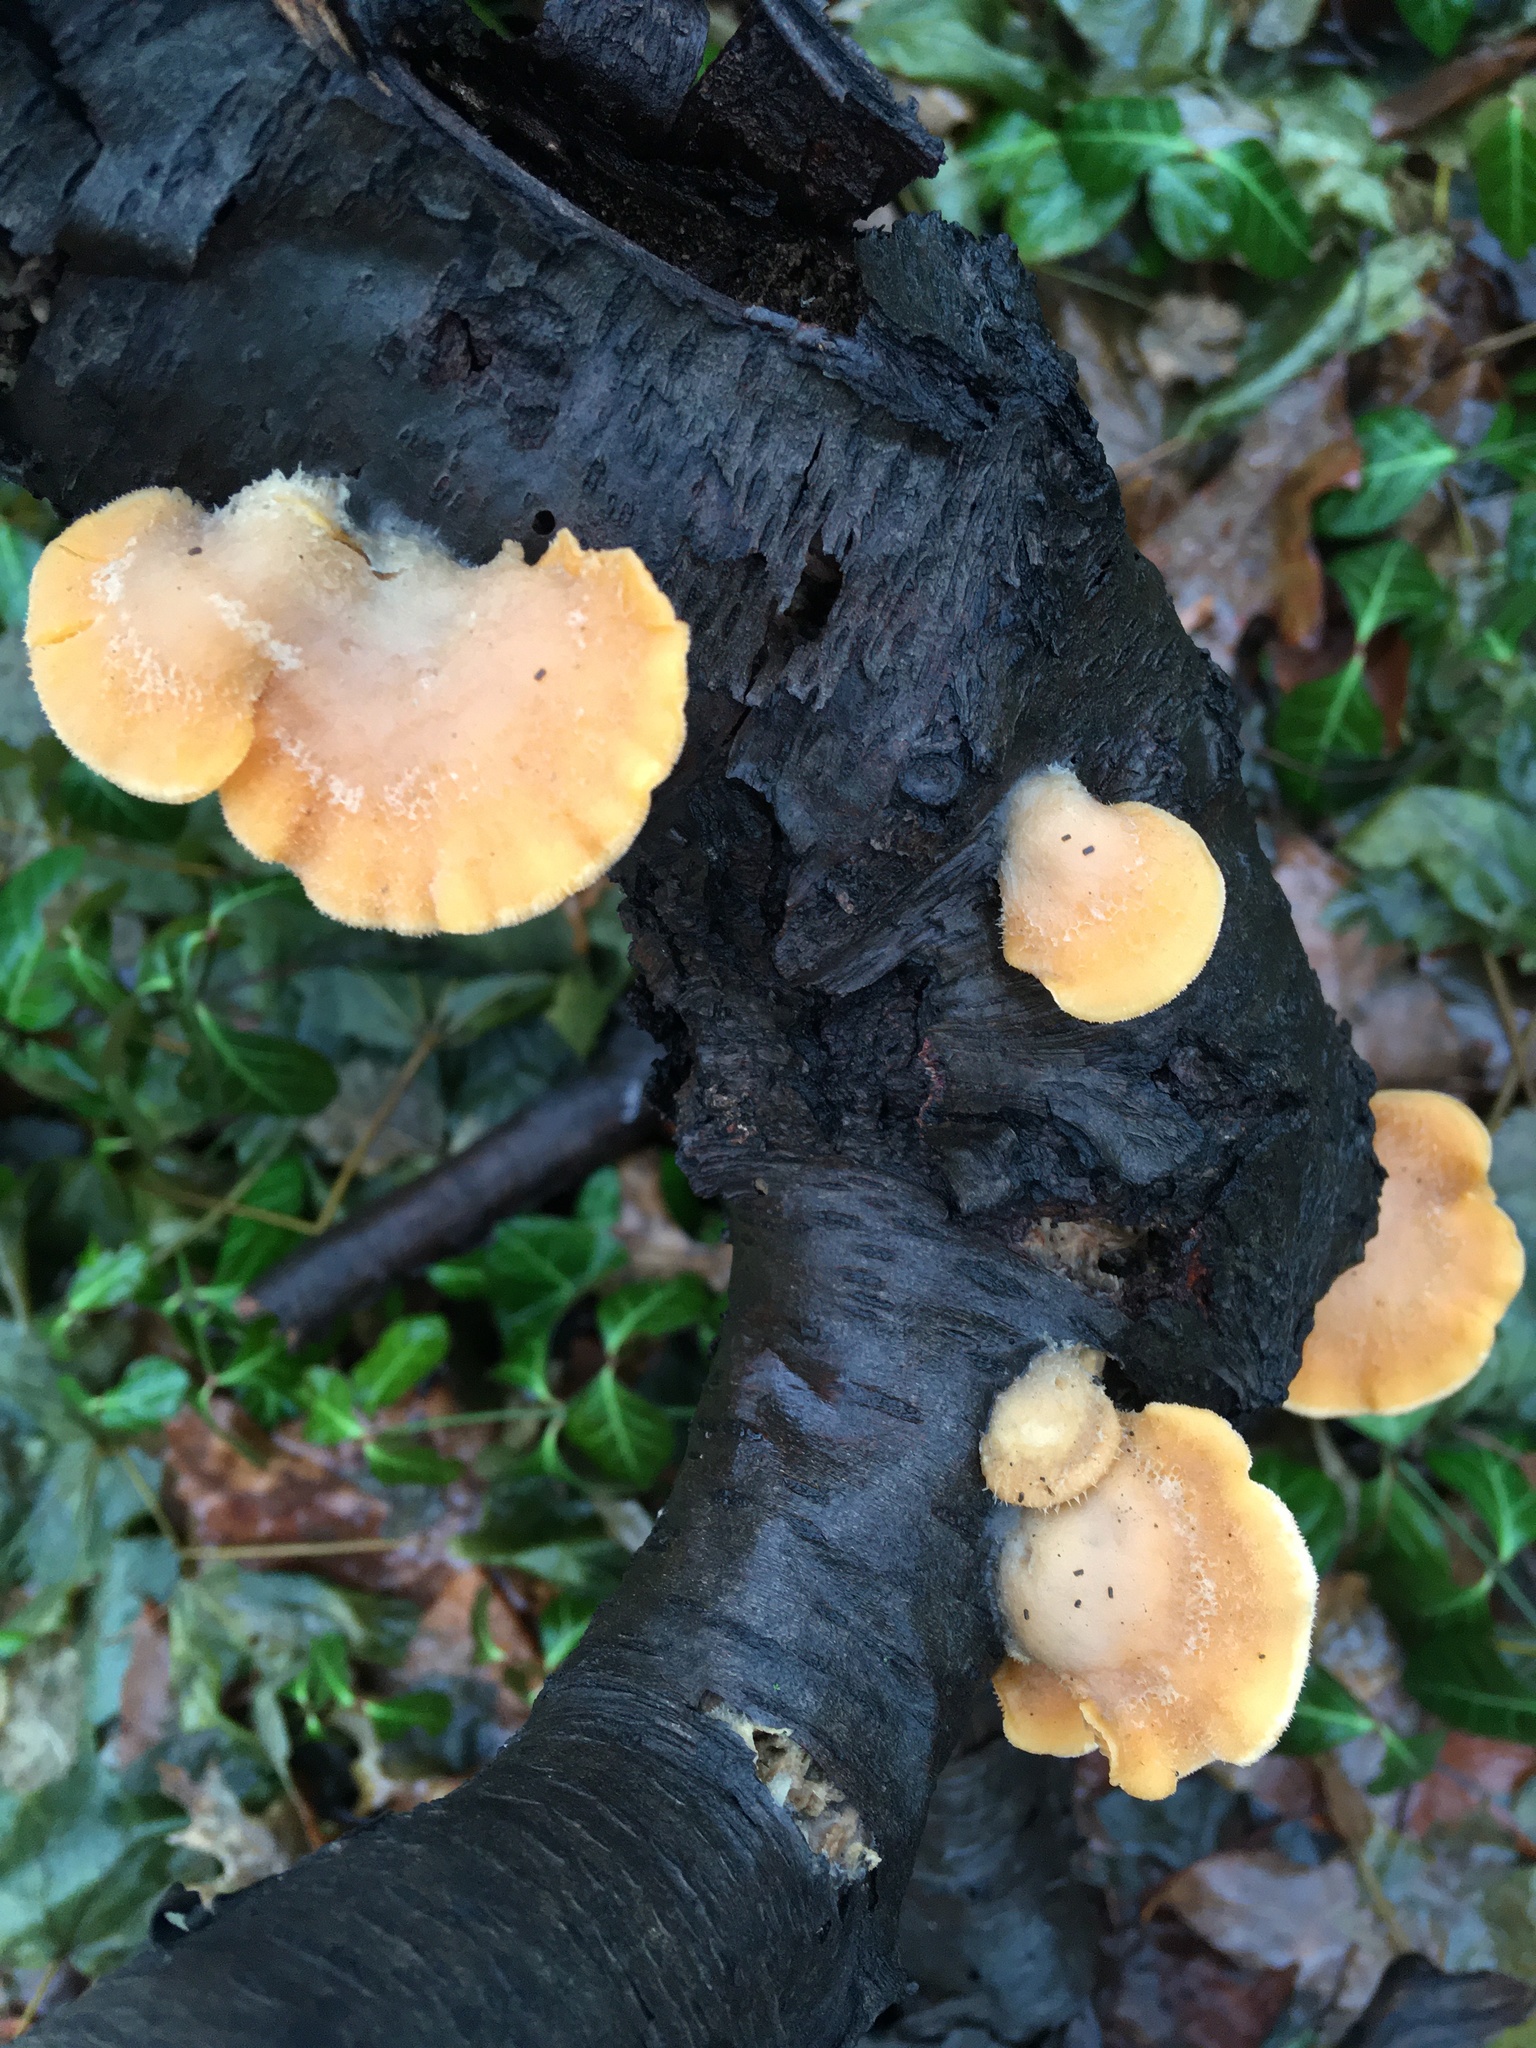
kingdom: Fungi
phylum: Basidiomycota
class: Agaricomycetes
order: Agaricales
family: Phyllotopsidaceae
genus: Phyllotopsis
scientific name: Phyllotopsis nidulans
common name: Orange mock oyster
